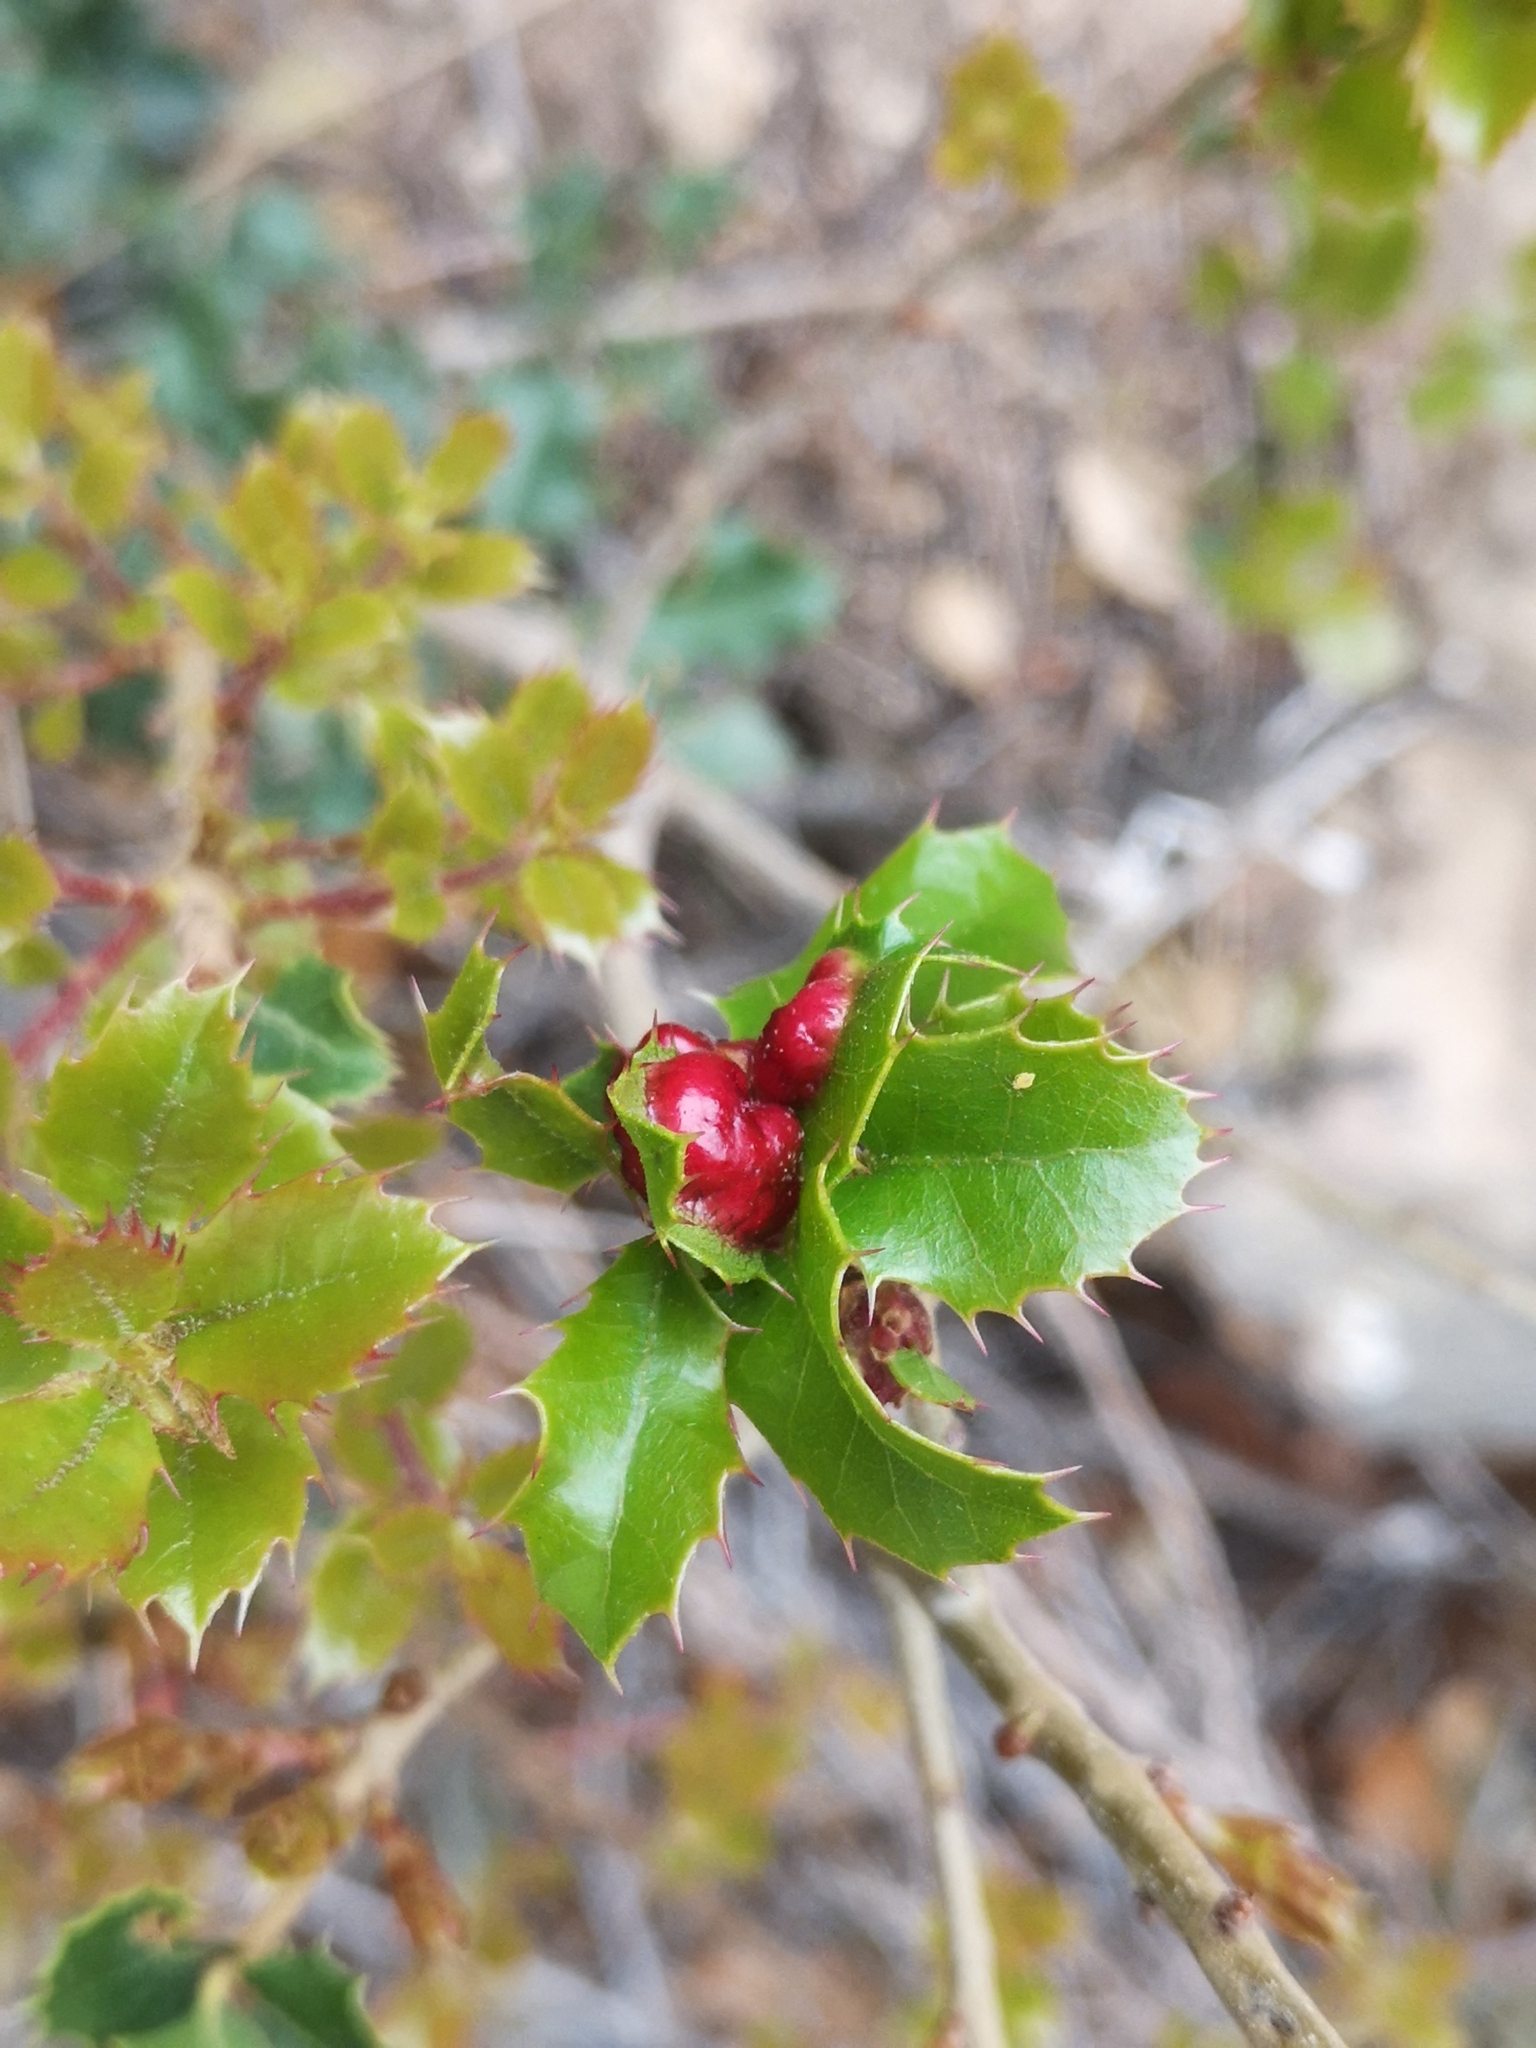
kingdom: Plantae
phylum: Tracheophyta
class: Magnoliopsida
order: Fagales
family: Fagaceae
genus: Quercus
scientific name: Quercus coccifera
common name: Kermes oak
